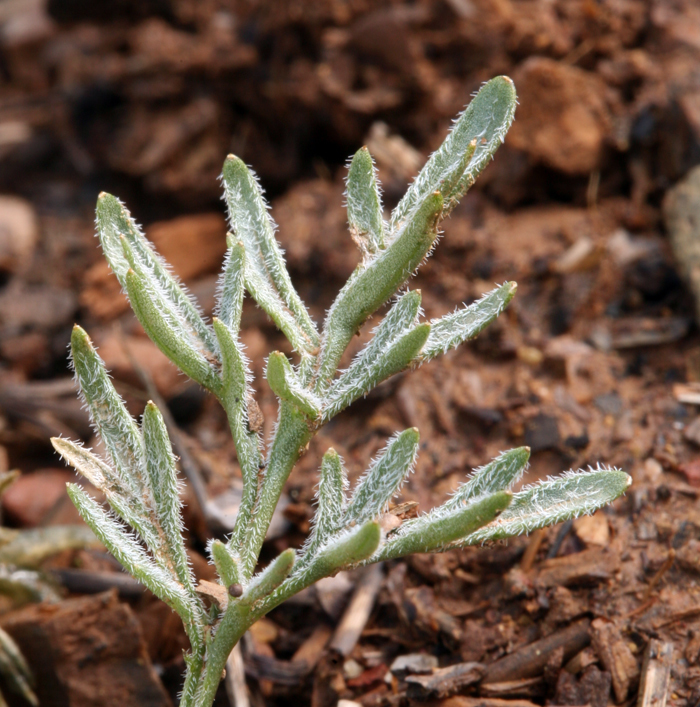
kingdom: Plantae
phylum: Tracheophyta
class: Magnoliopsida
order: Malpighiales
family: Violaceae
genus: Viola
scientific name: Viola douglasii
